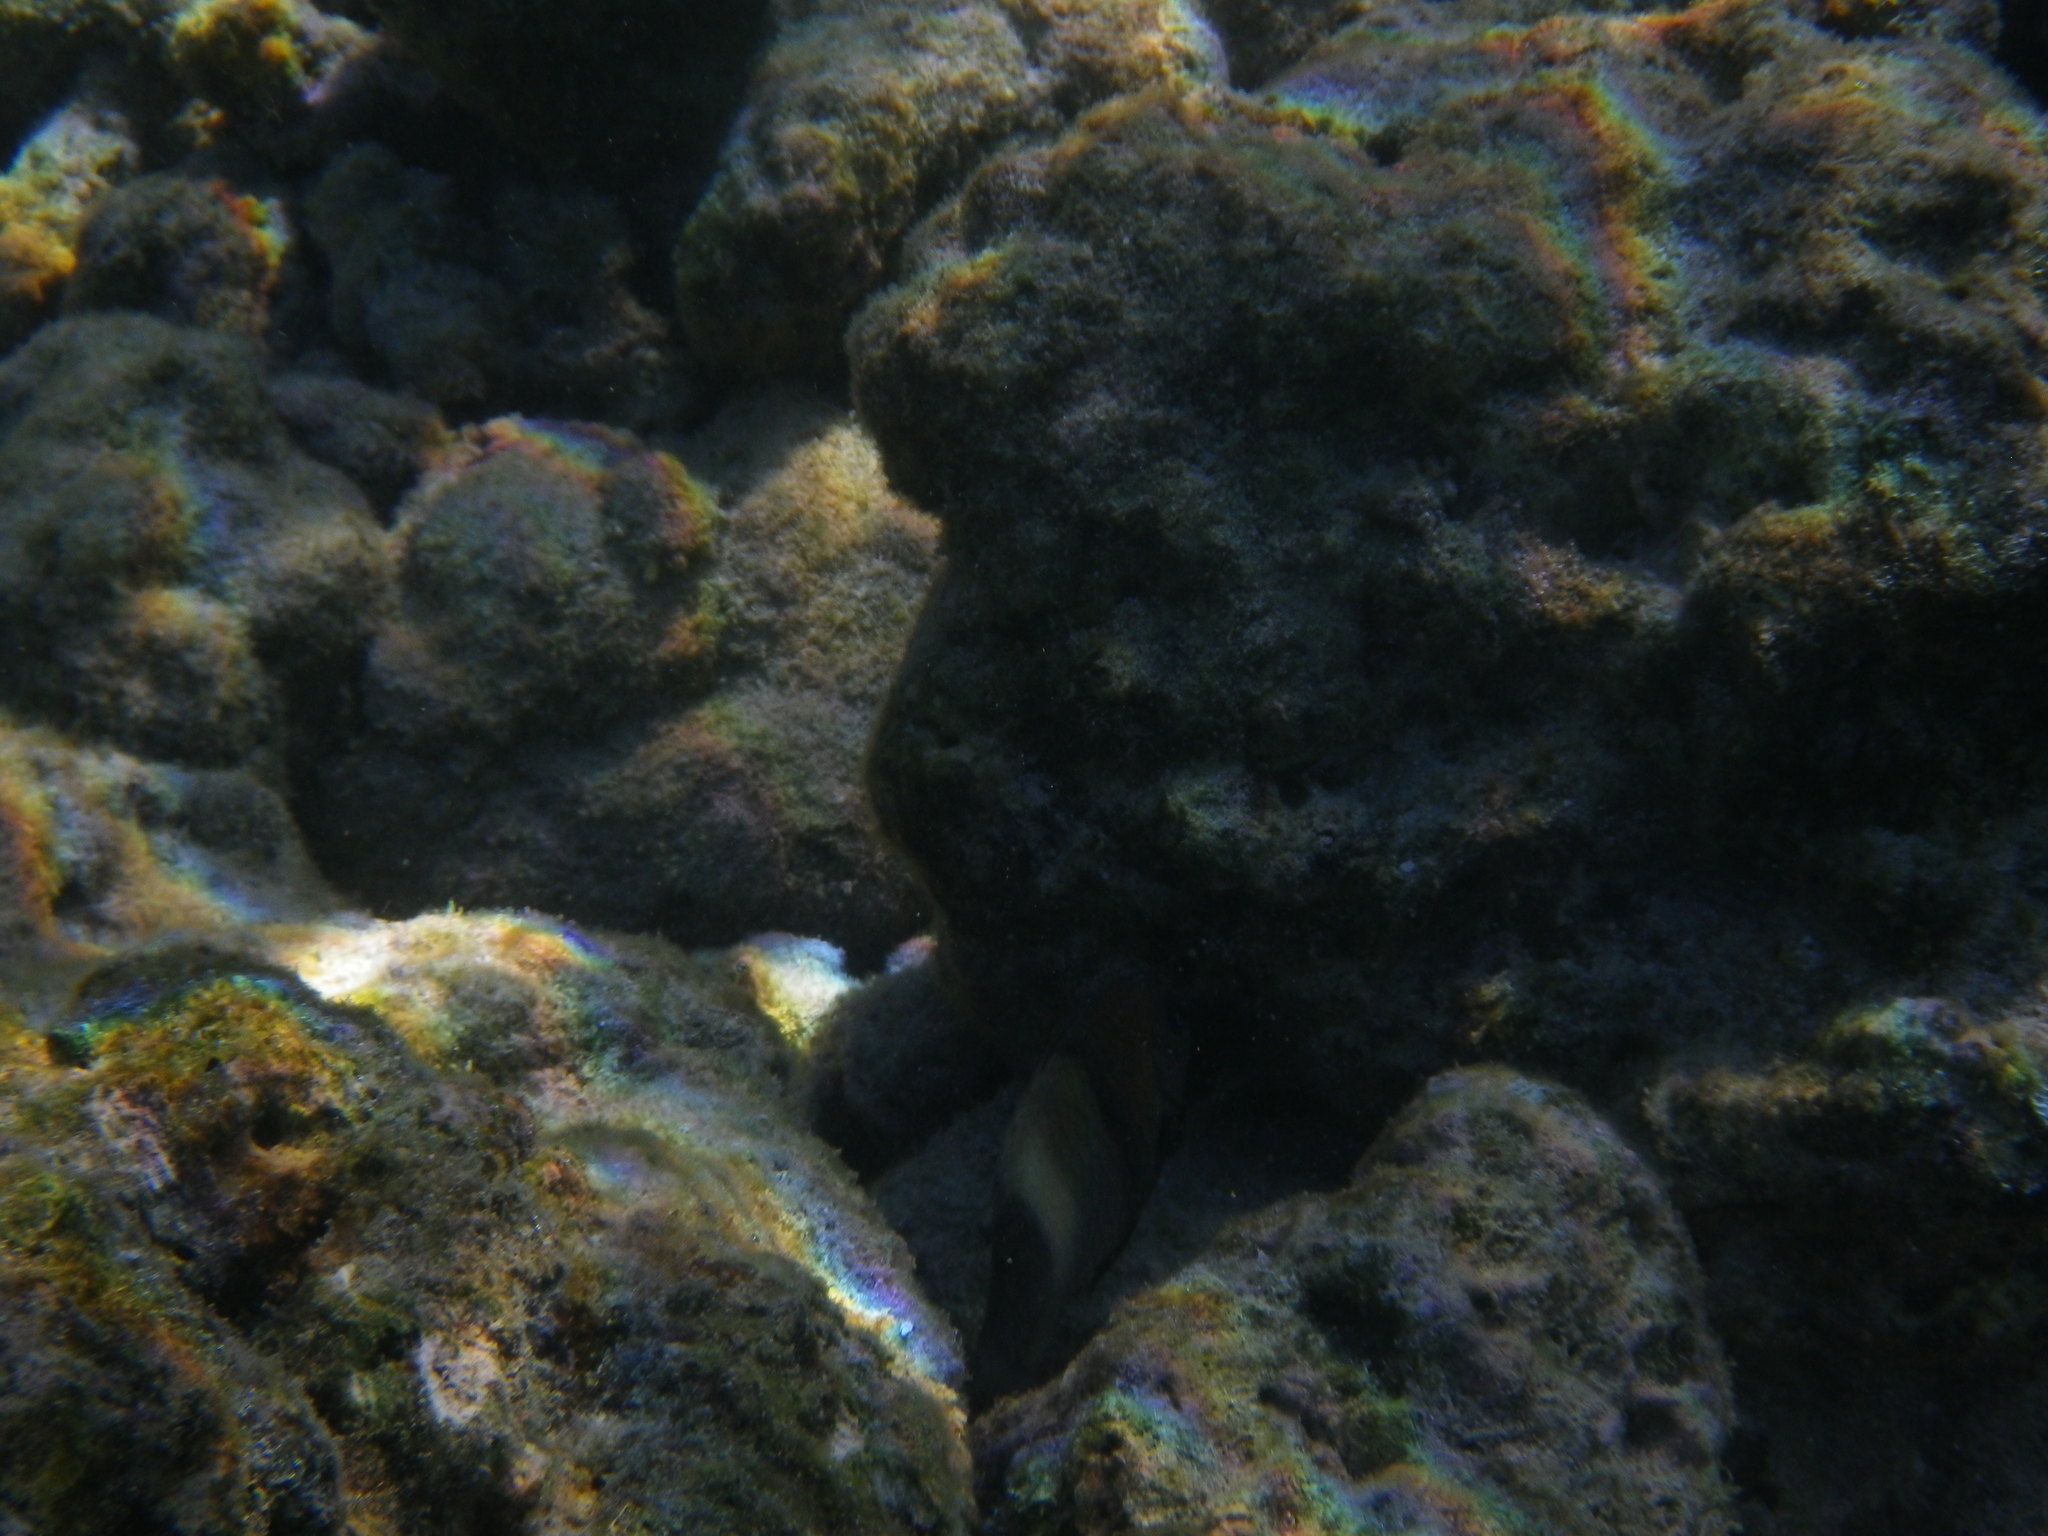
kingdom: Animalia
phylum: Chordata
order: Perciformes
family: Pomacentridae
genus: Stegastes
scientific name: Stegastes albifasciatus
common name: Whitebar gregory
